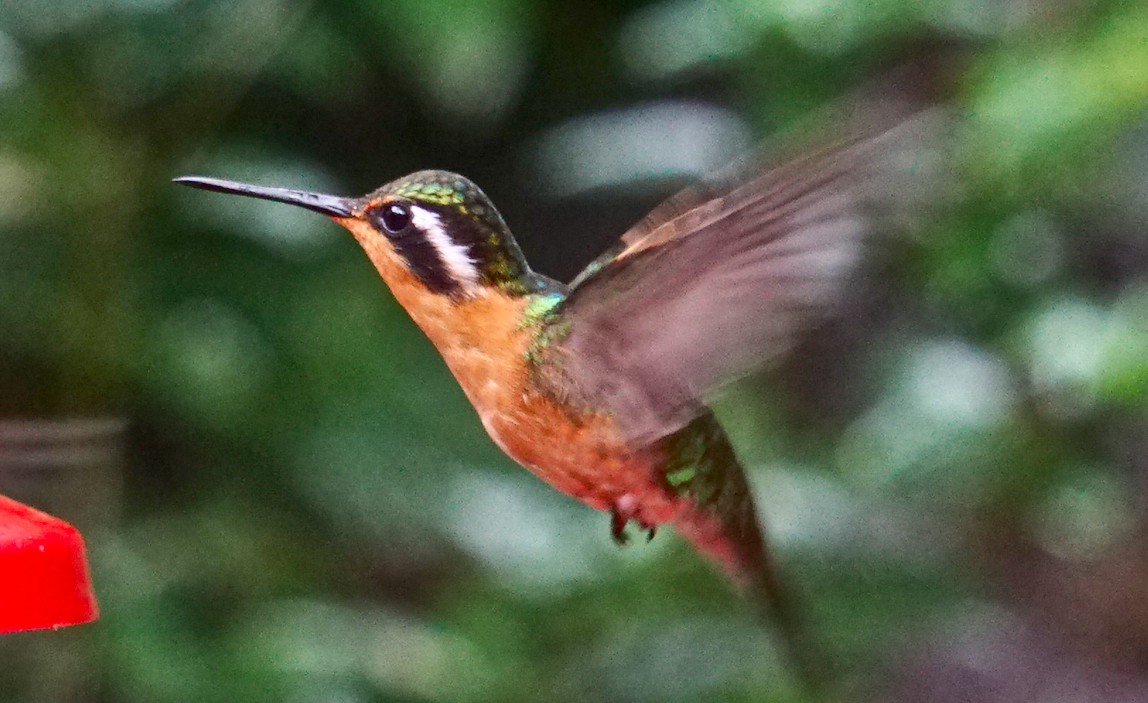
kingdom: Animalia
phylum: Chordata
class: Aves
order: Apodiformes
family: Trochilidae
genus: Lampornis
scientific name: Lampornis calolaemus
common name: Purple-throated mountain-gem
